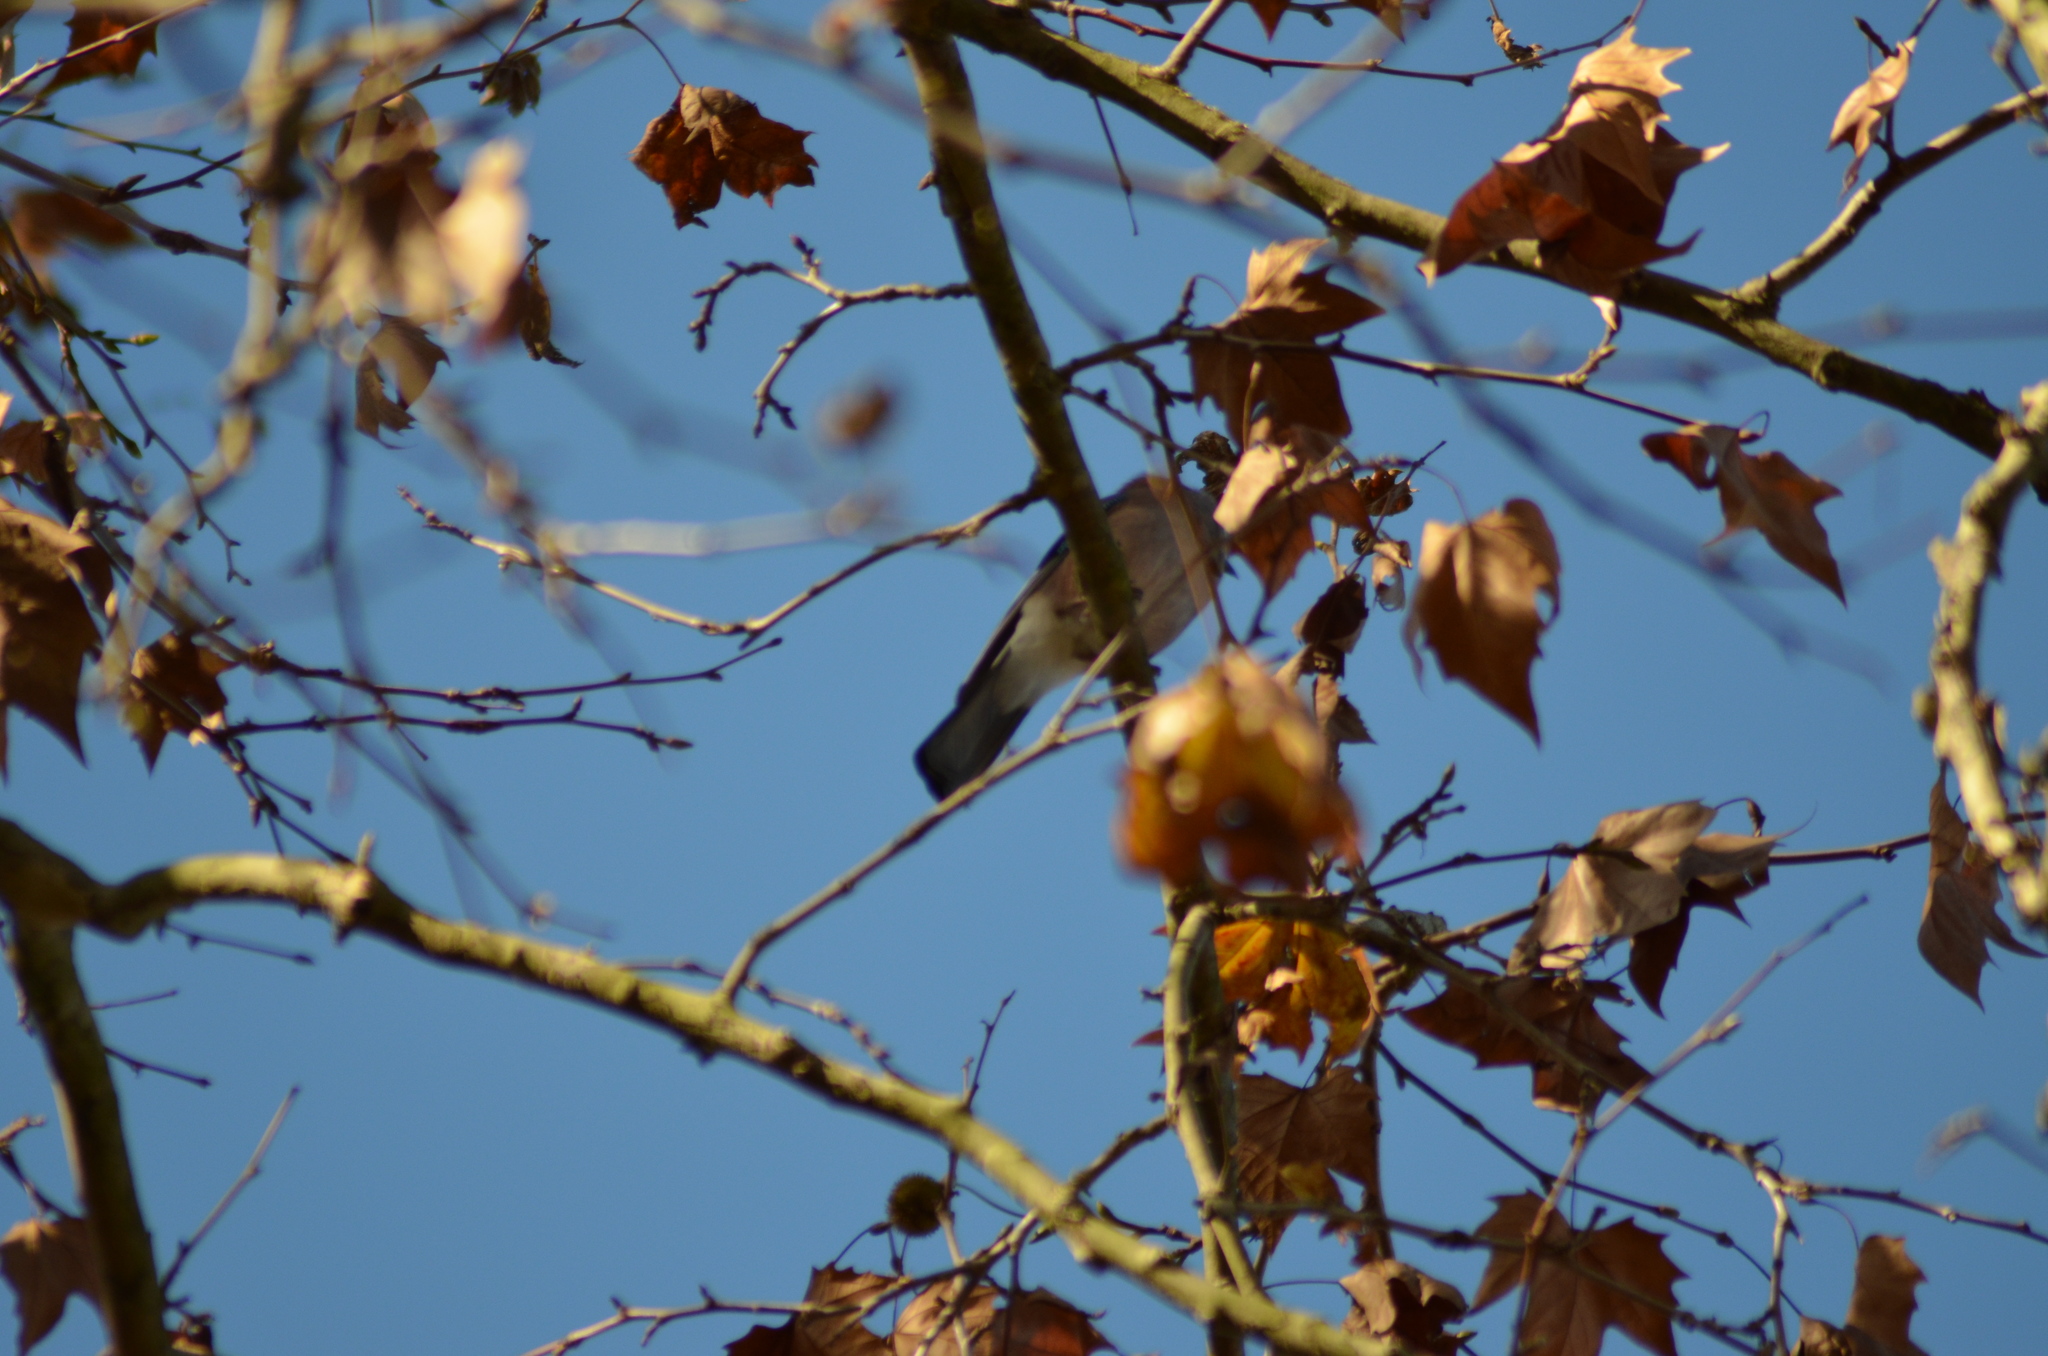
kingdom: Animalia
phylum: Chordata
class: Aves
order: Passeriformes
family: Corvidae
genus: Garrulus
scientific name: Garrulus glandarius
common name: Eurasian jay
